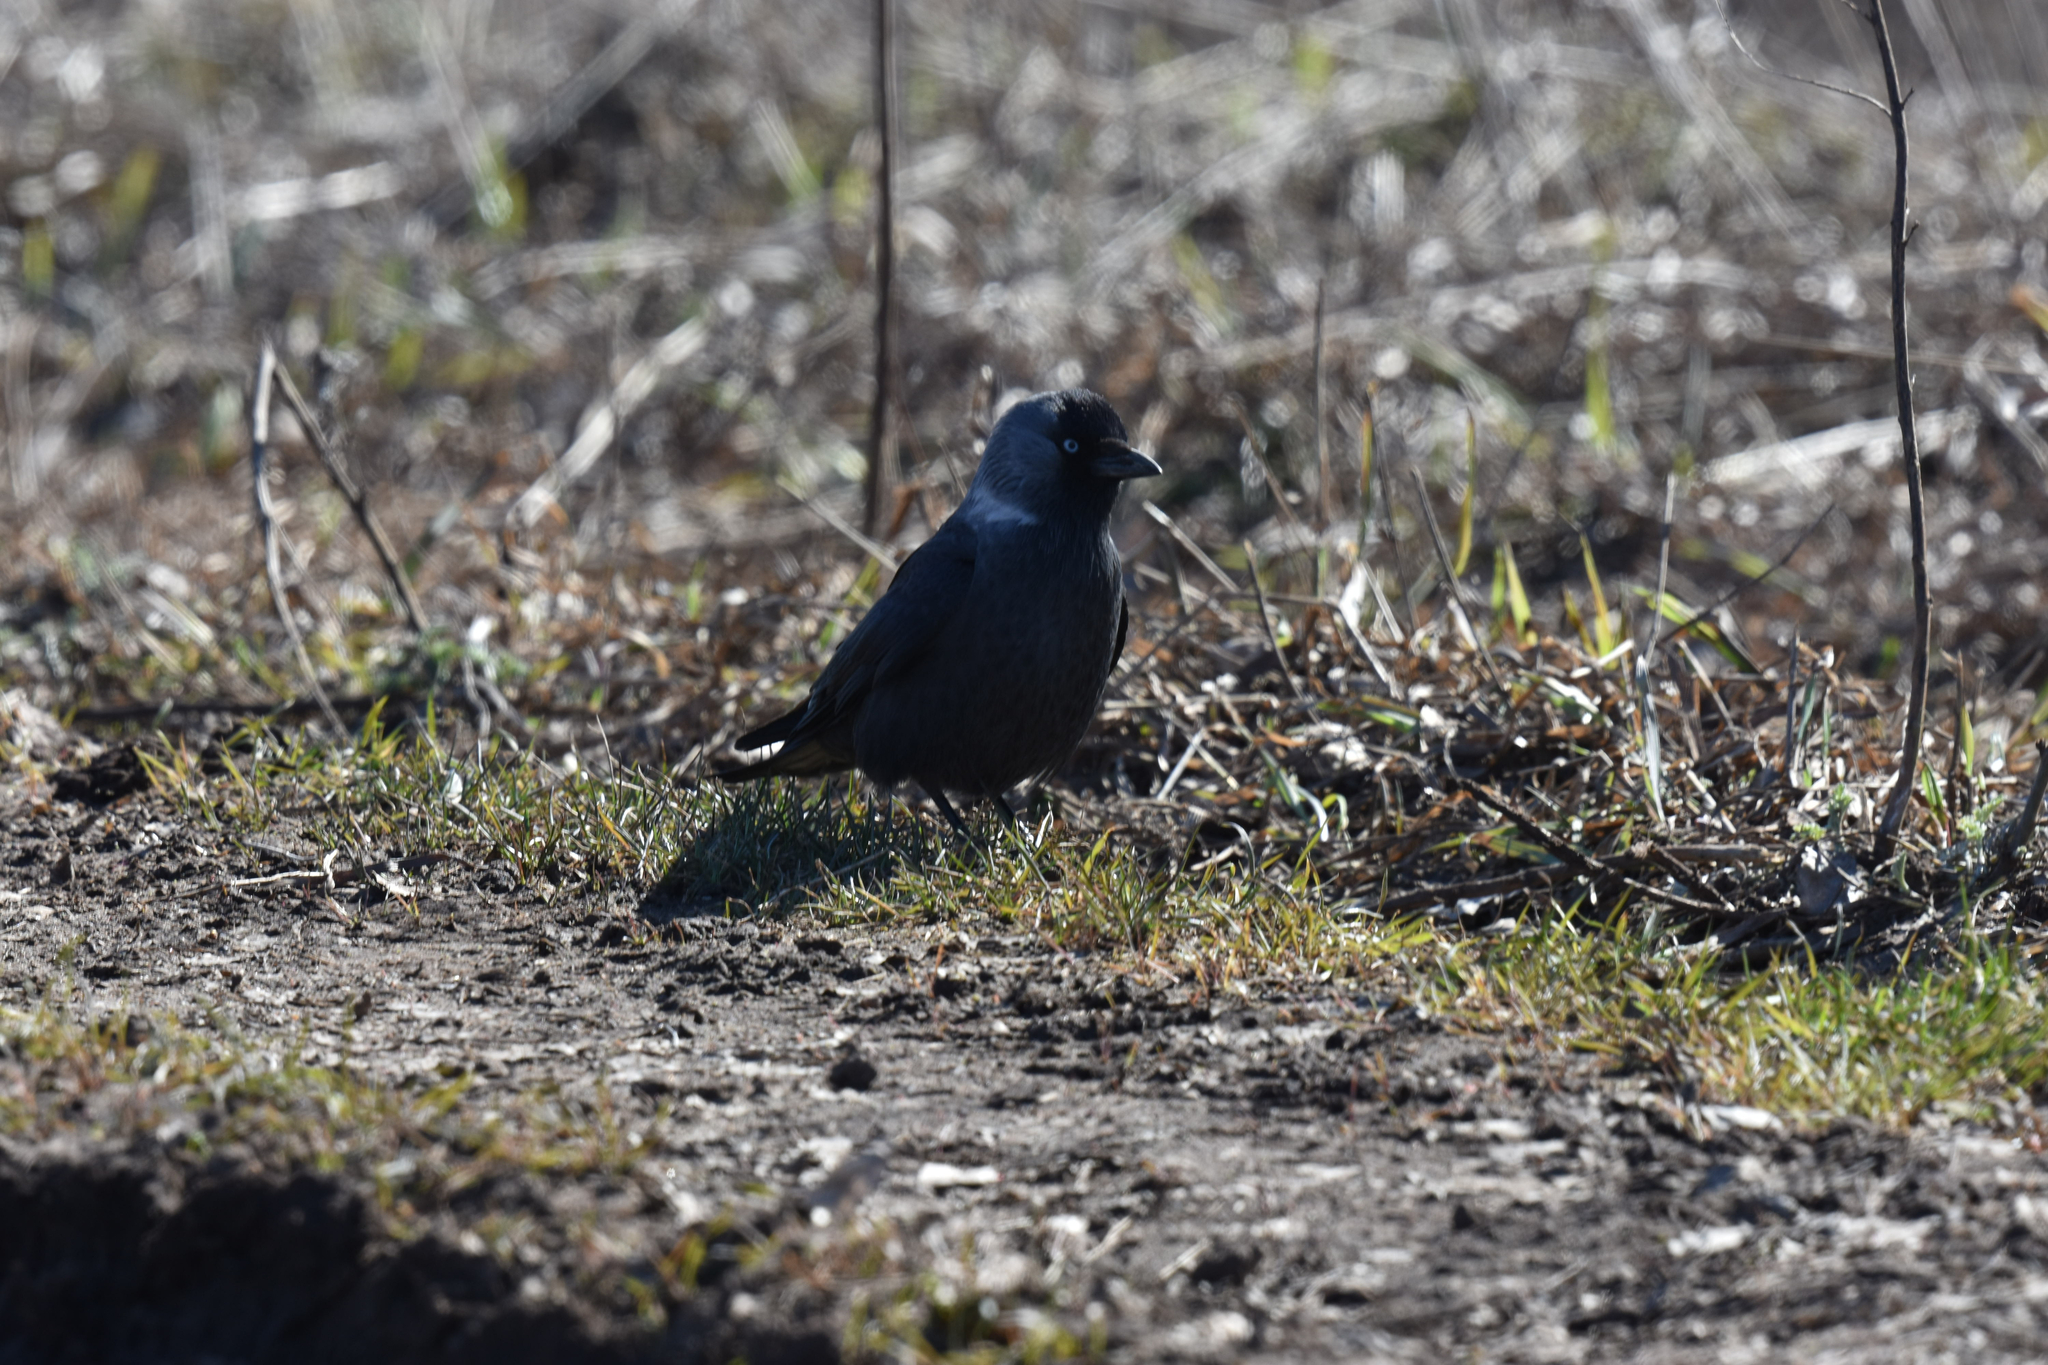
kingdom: Animalia
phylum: Chordata
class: Aves
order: Passeriformes
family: Corvidae
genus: Coloeus
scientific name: Coloeus monedula
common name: Western jackdaw
